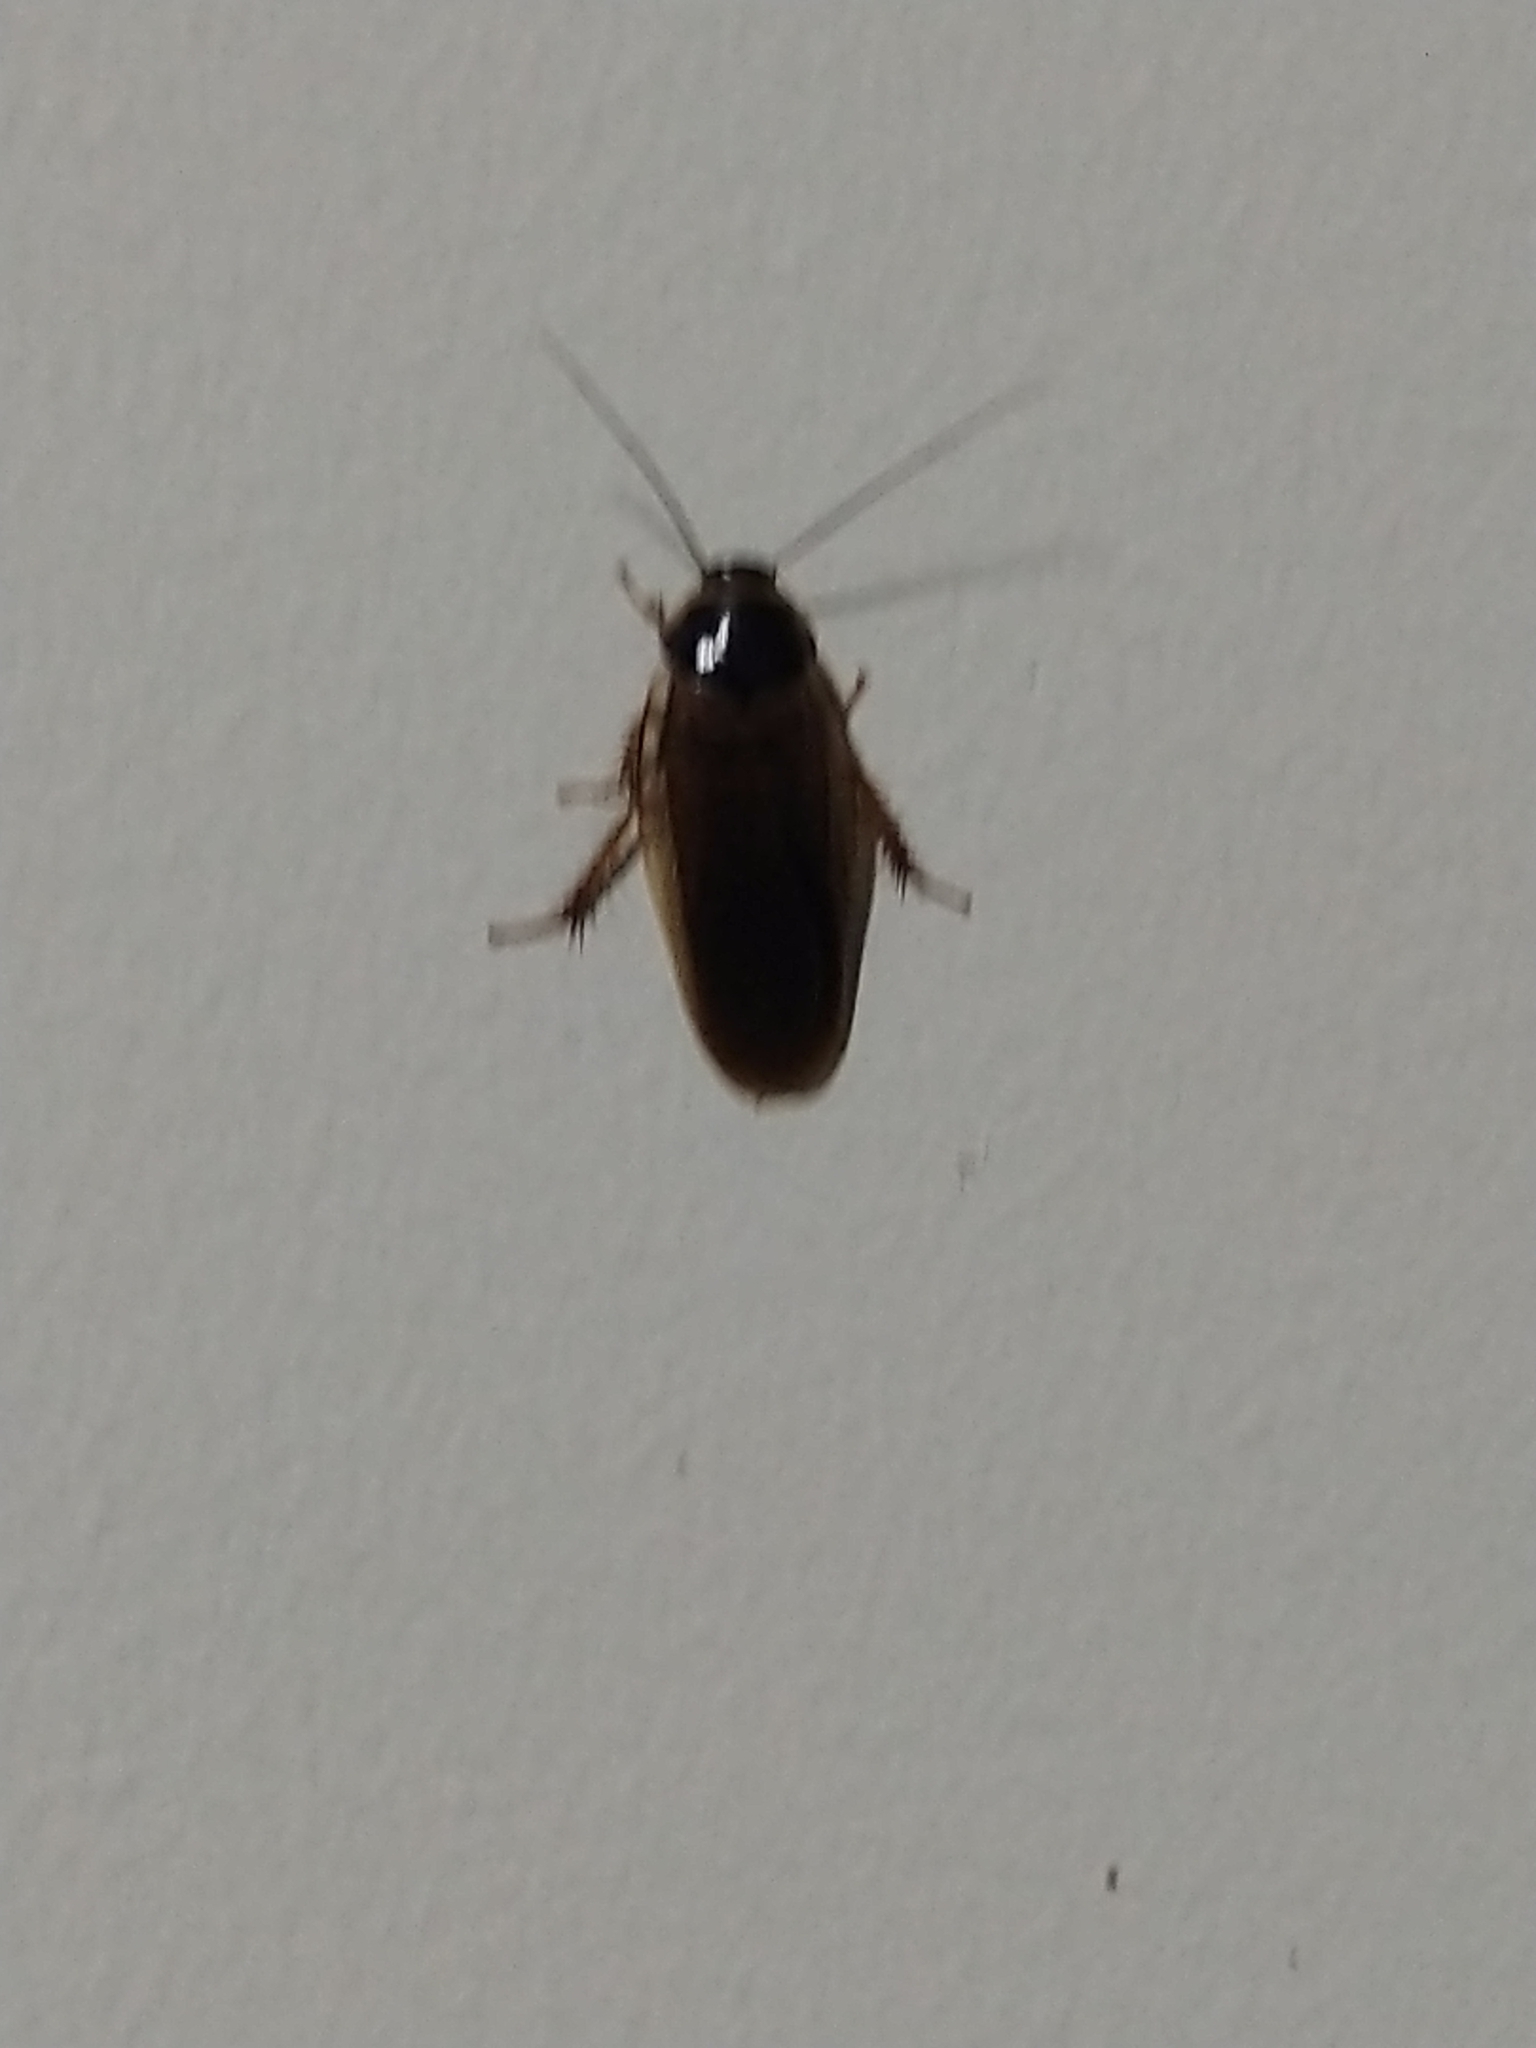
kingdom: Animalia
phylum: Arthropoda
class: Insecta
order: Blattodea
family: Blaberidae
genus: Pycnoscelus
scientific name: Pycnoscelus indicus
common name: Burrowing cockroach
